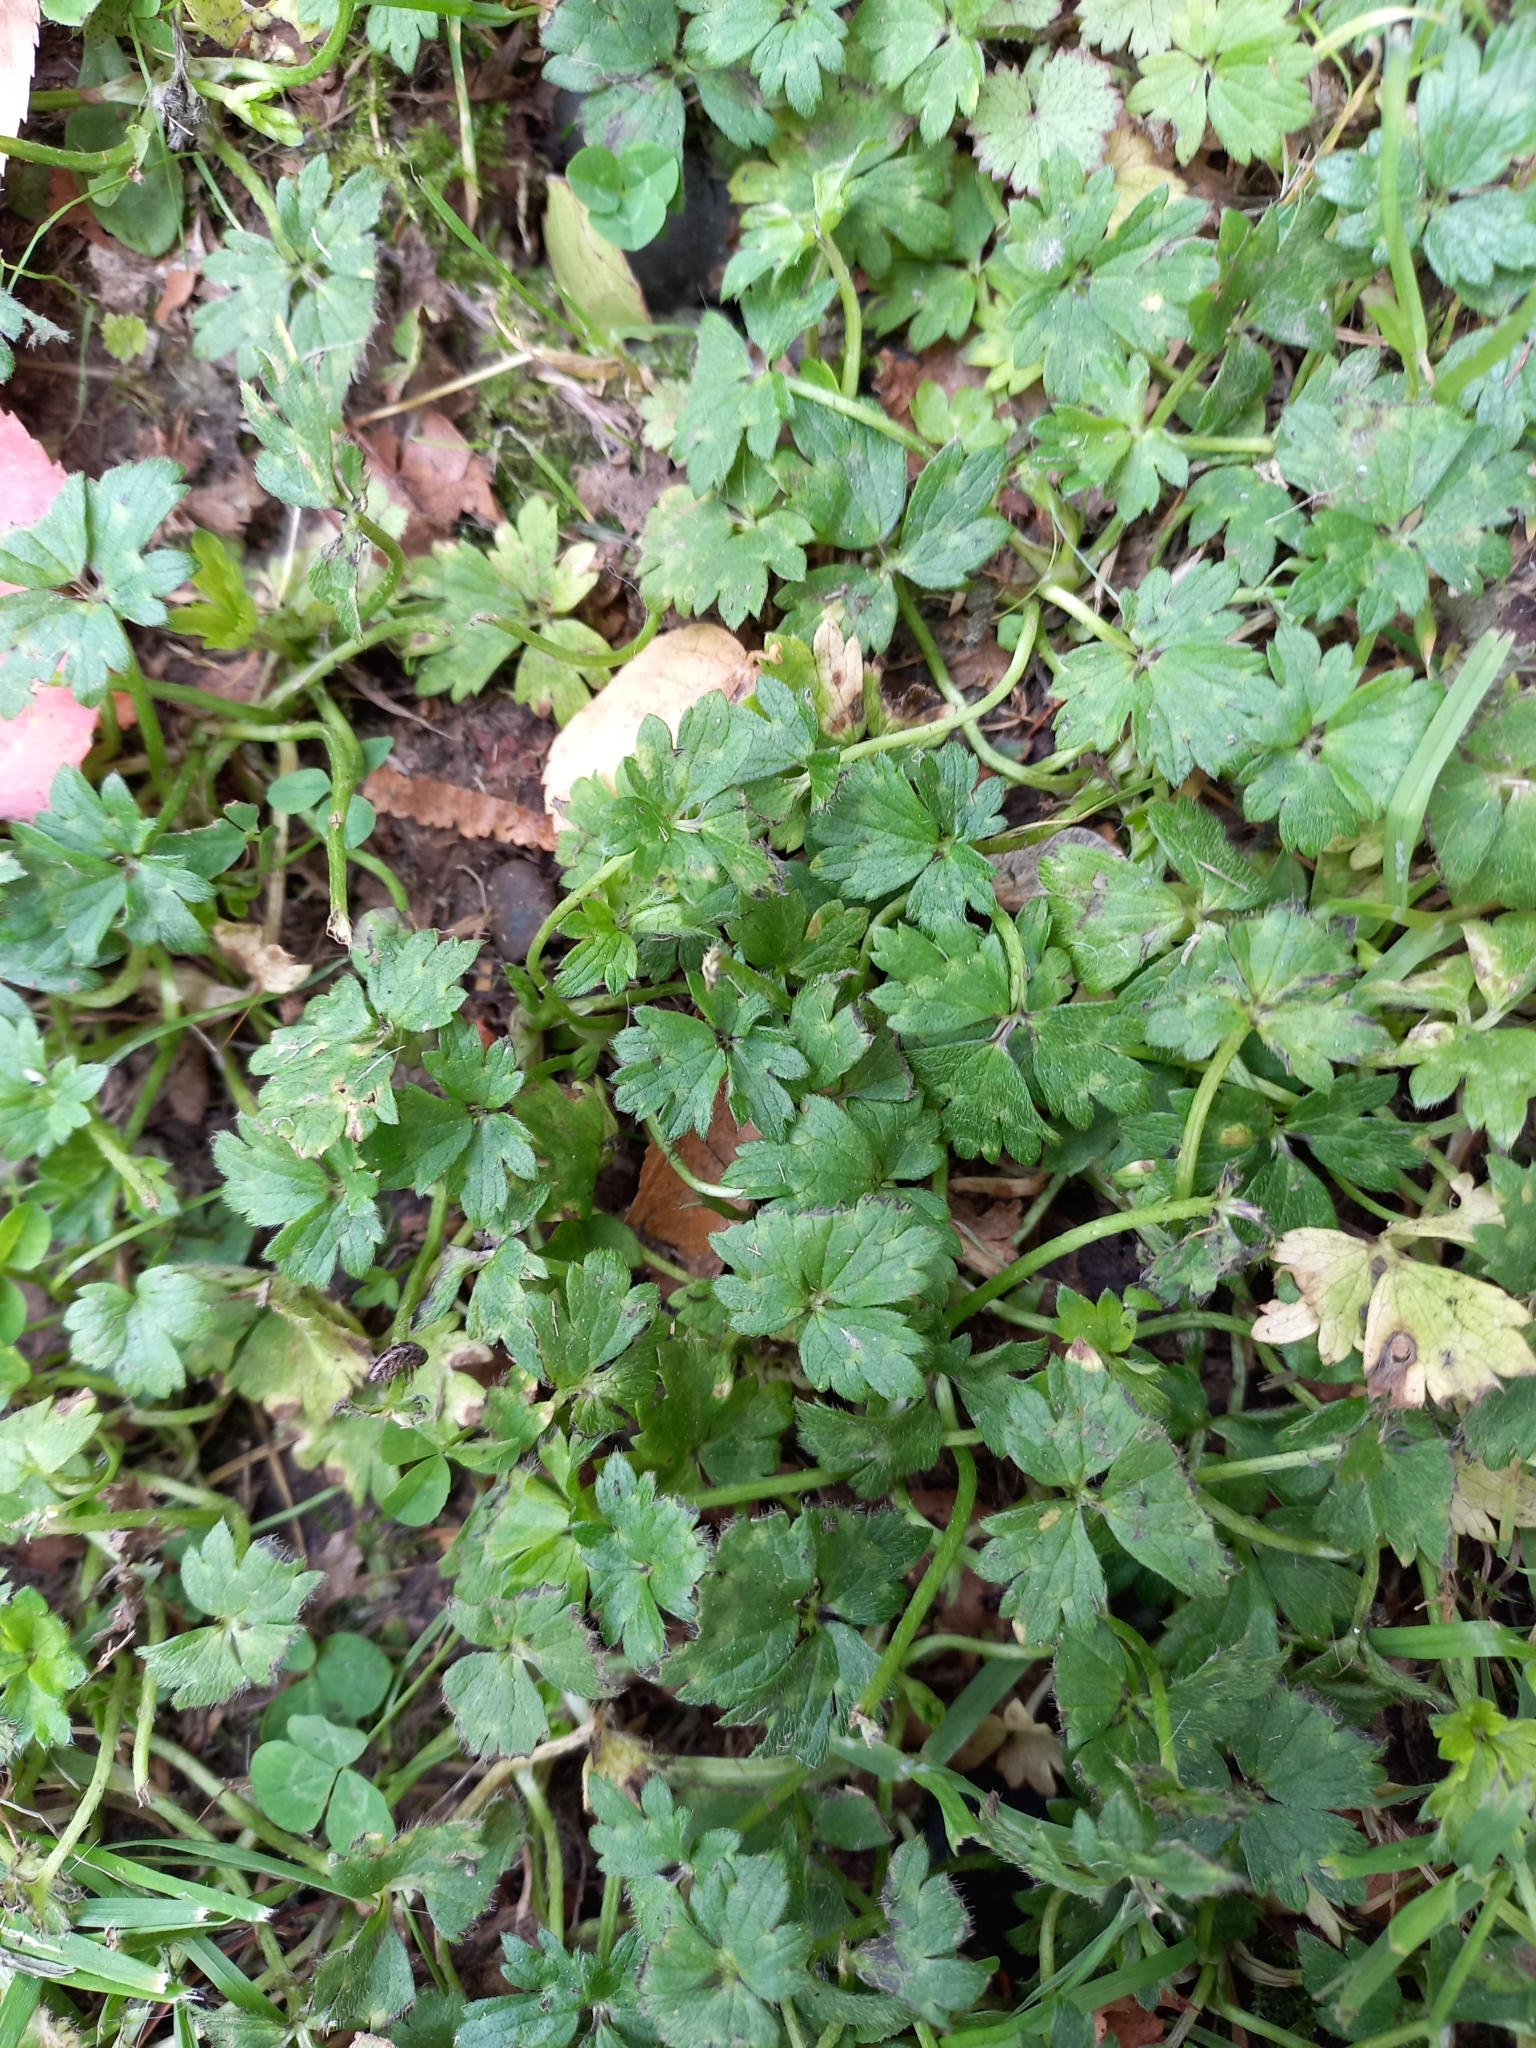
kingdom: Plantae
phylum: Tracheophyta
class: Magnoliopsida
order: Ranunculales
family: Ranunculaceae
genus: Ranunculus
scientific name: Ranunculus repens
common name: Creeping buttercup
